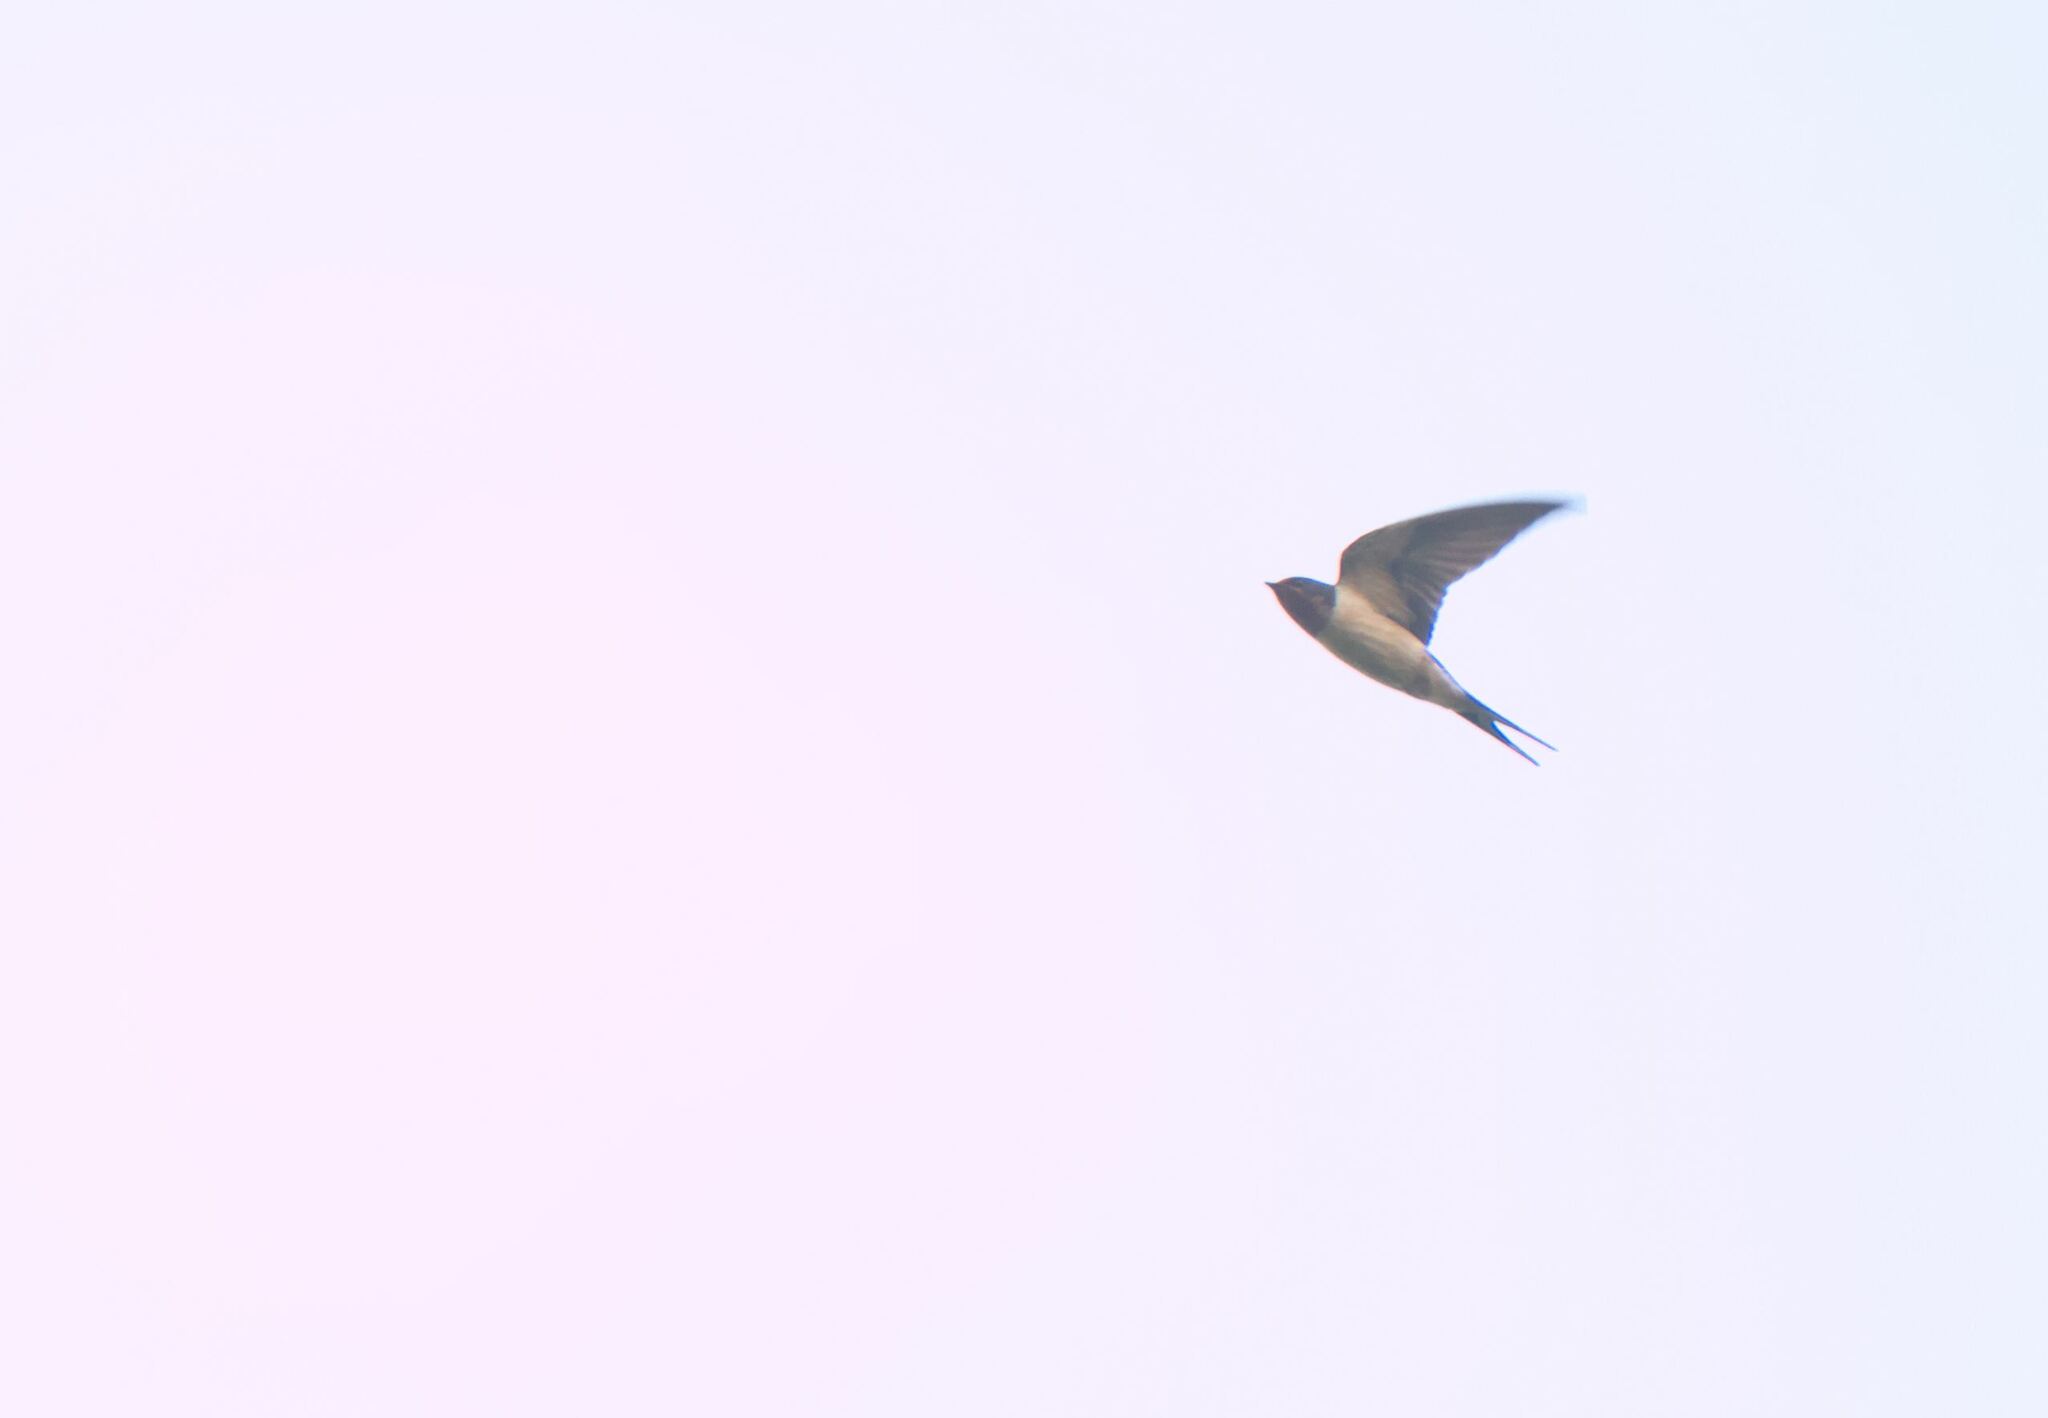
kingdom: Animalia
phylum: Chordata
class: Aves
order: Passeriformes
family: Hirundinidae
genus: Hirundo
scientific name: Hirundo rustica
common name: Barn swallow
